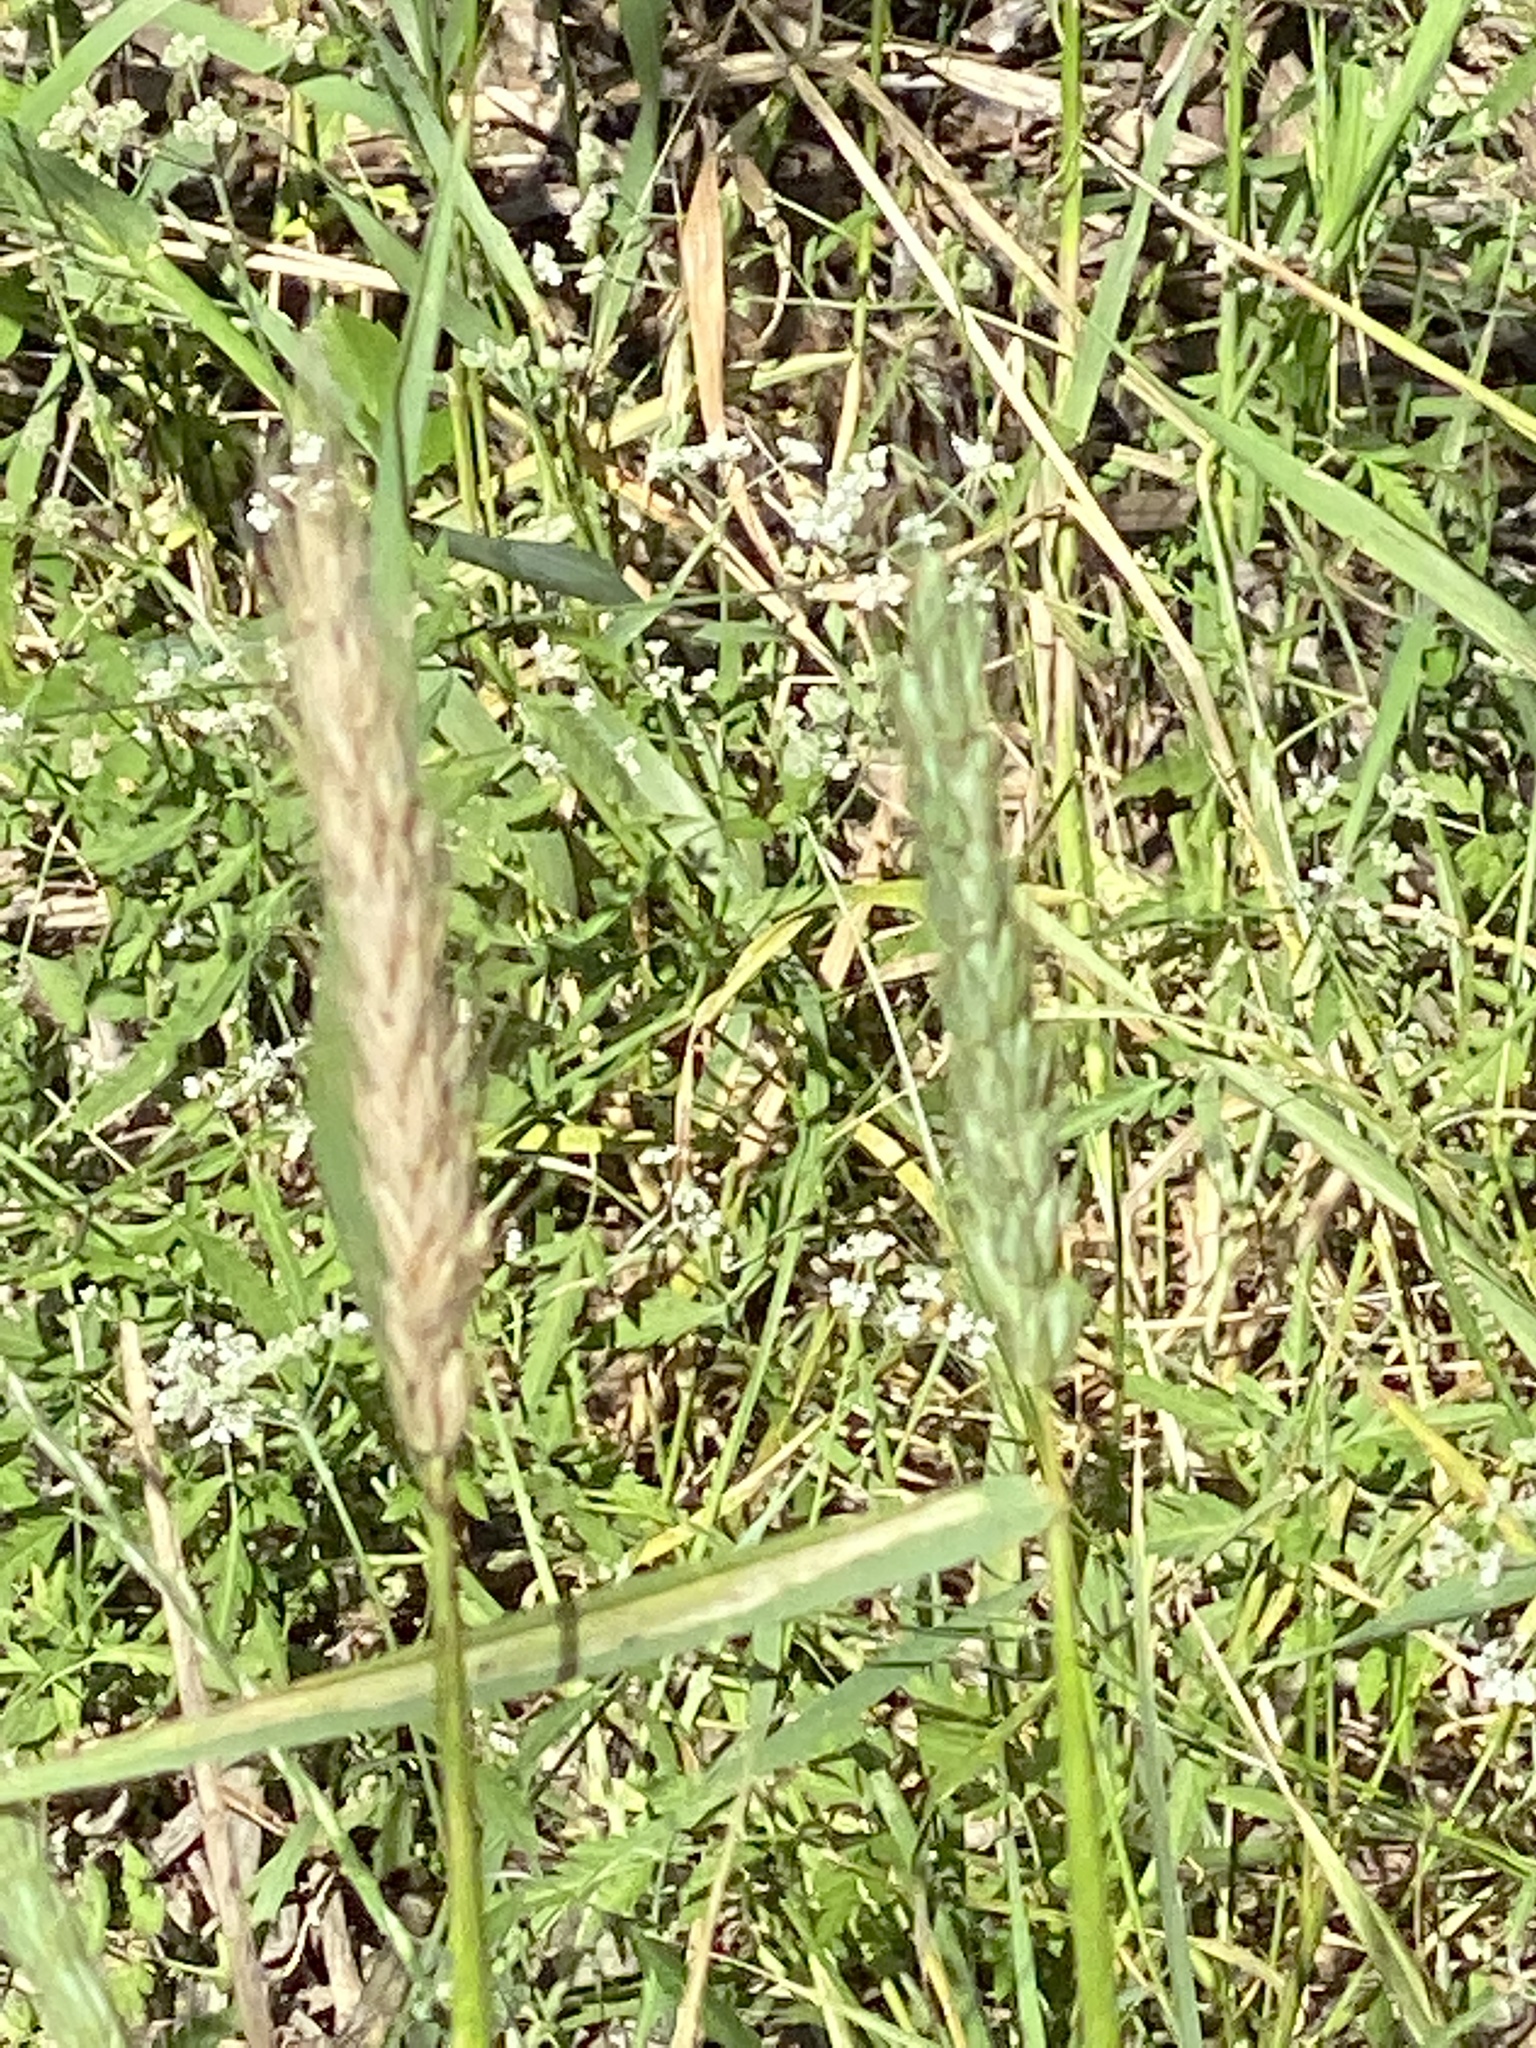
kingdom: Plantae
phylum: Tracheophyta
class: Liliopsida
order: Poales
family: Poaceae
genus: Elymus
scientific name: Elymus virginicus
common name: Common eastern wildrye
